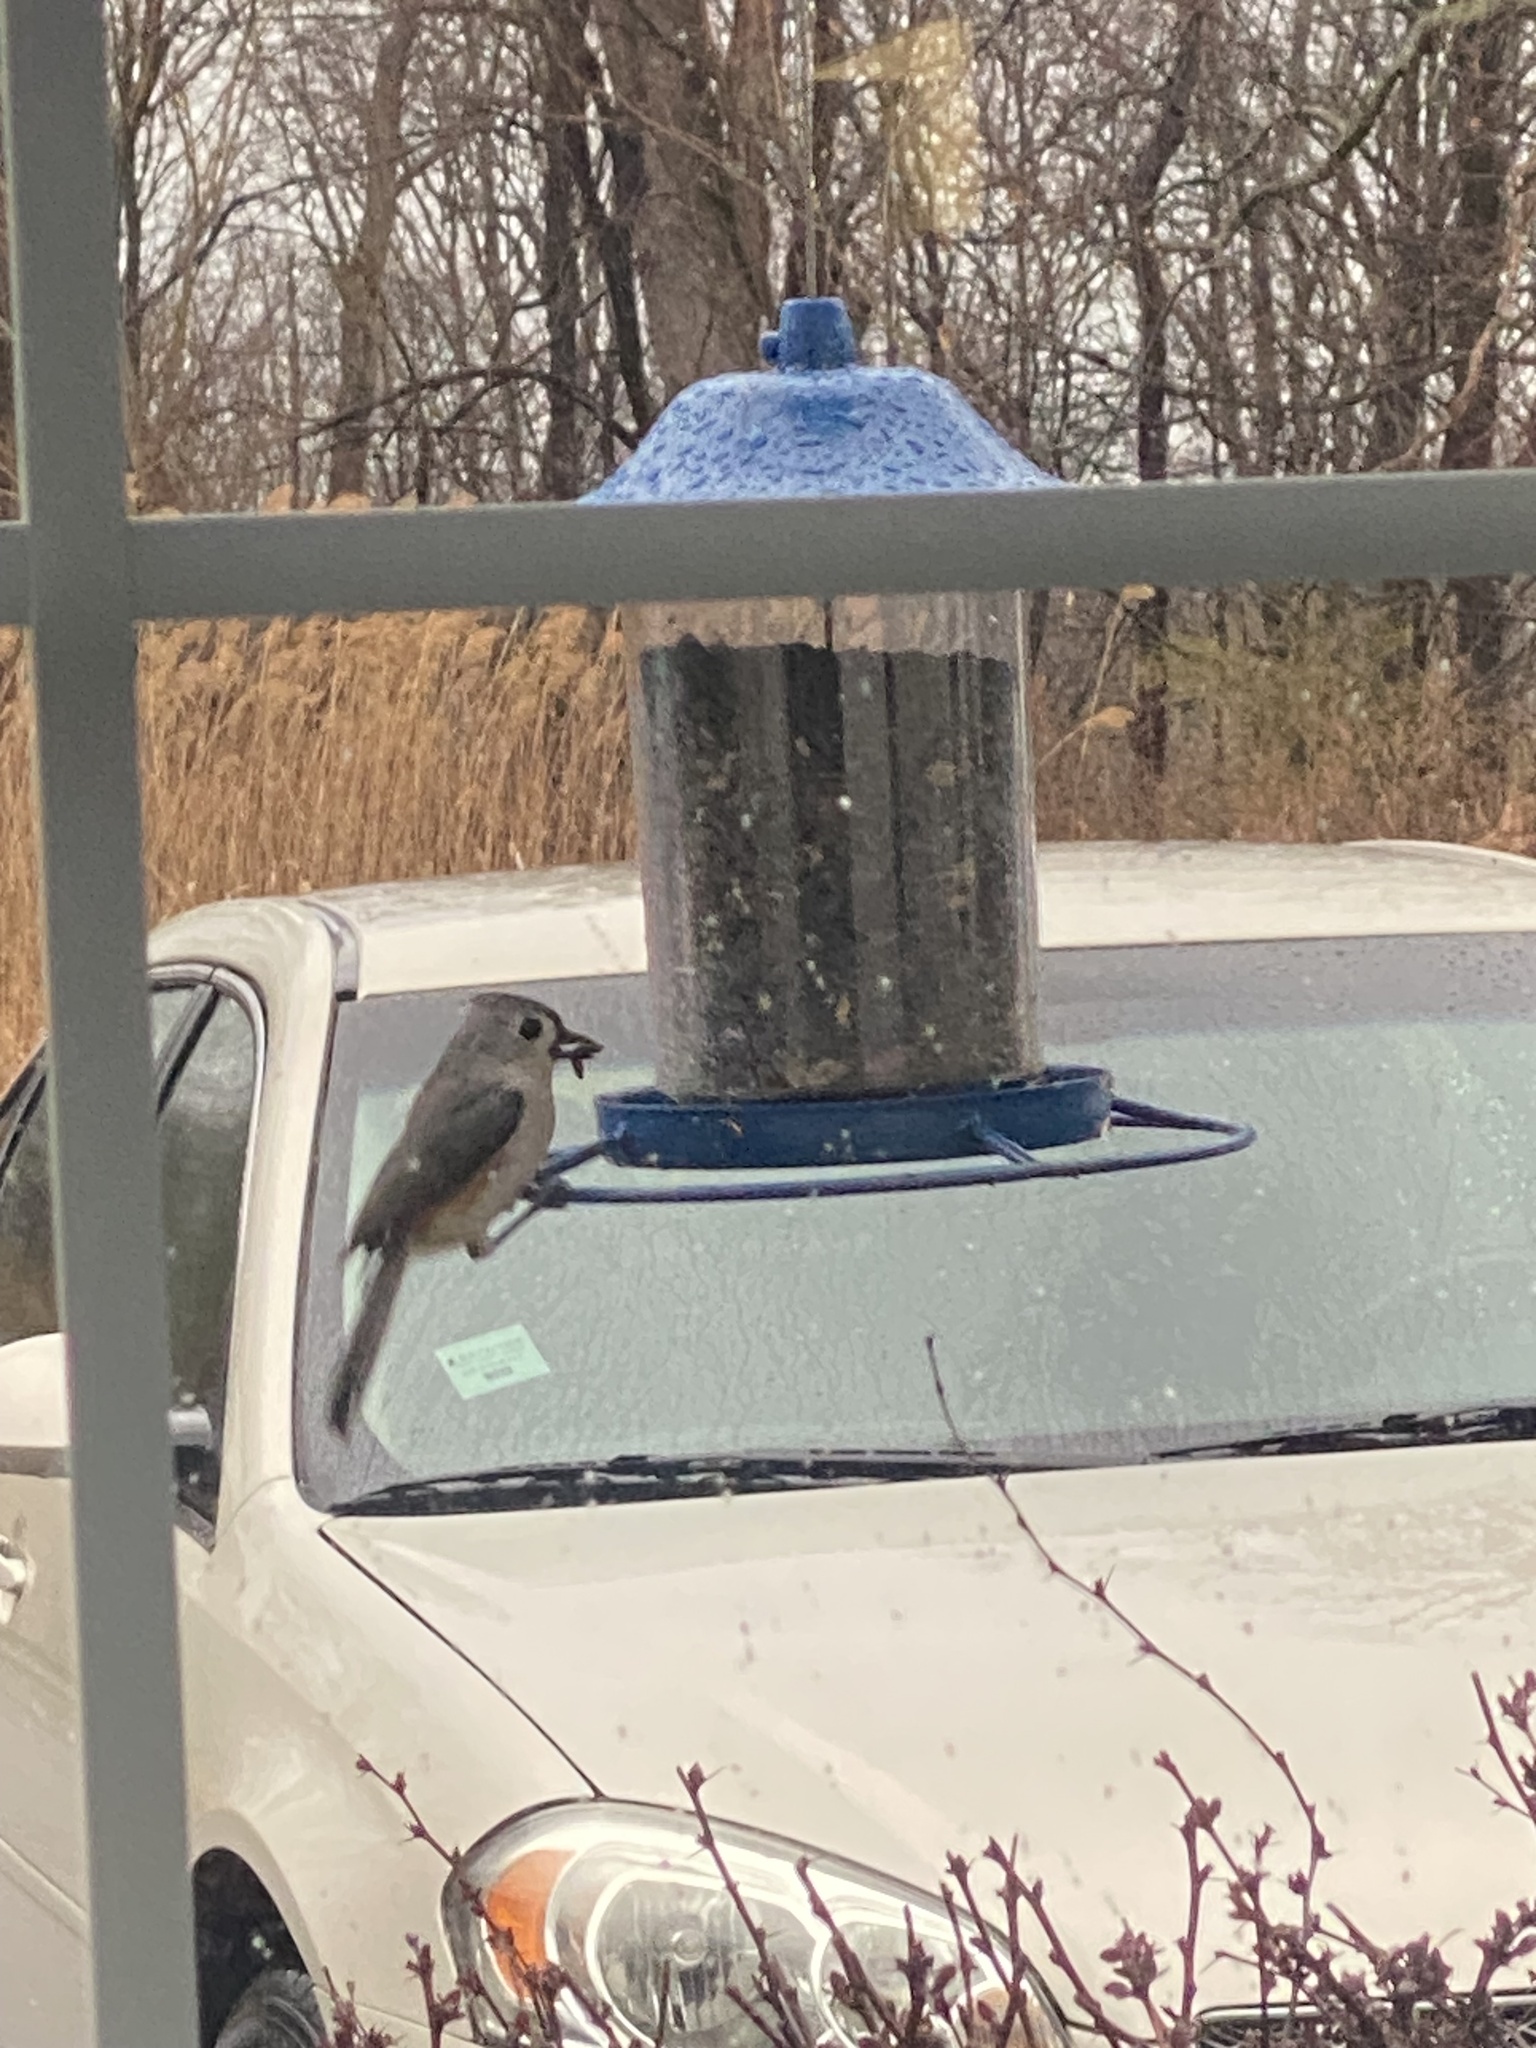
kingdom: Animalia
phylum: Chordata
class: Aves
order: Passeriformes
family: Paridae
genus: Baeolophus
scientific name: Baeolophus bicolor
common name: Tufted titmouse
